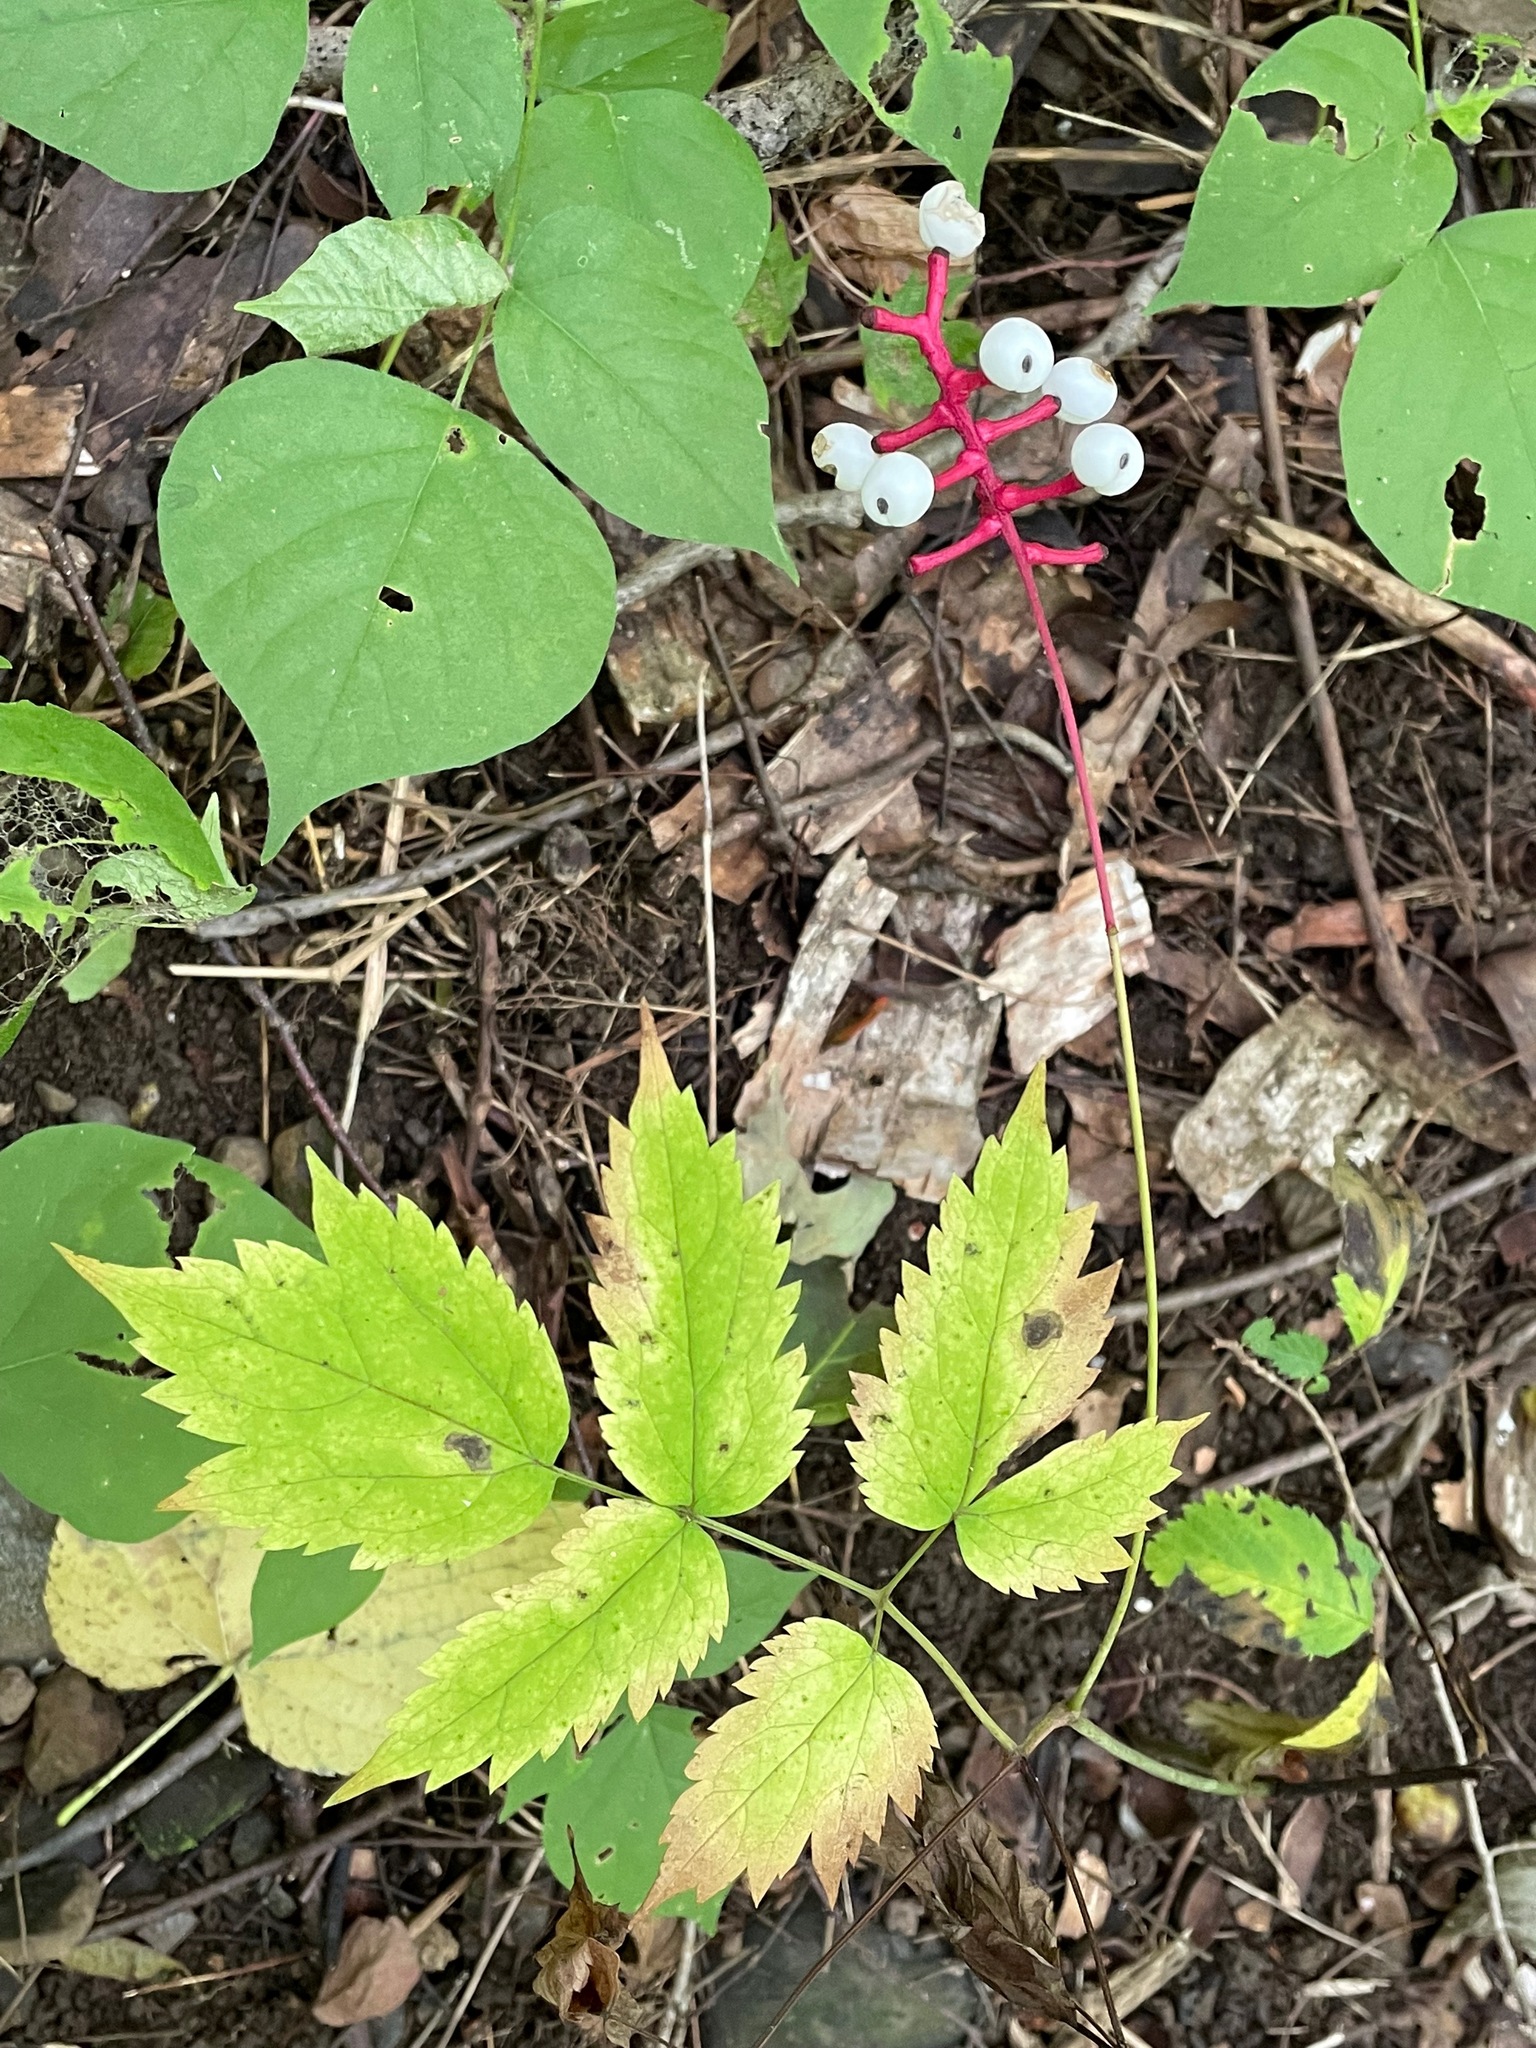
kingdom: Plantae
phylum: Tracheophyta
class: Magnoliopsida
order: Ranunculales
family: Ranunculaceae
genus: Actaea
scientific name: Actaea pachypoda
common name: Doll's-eyes
